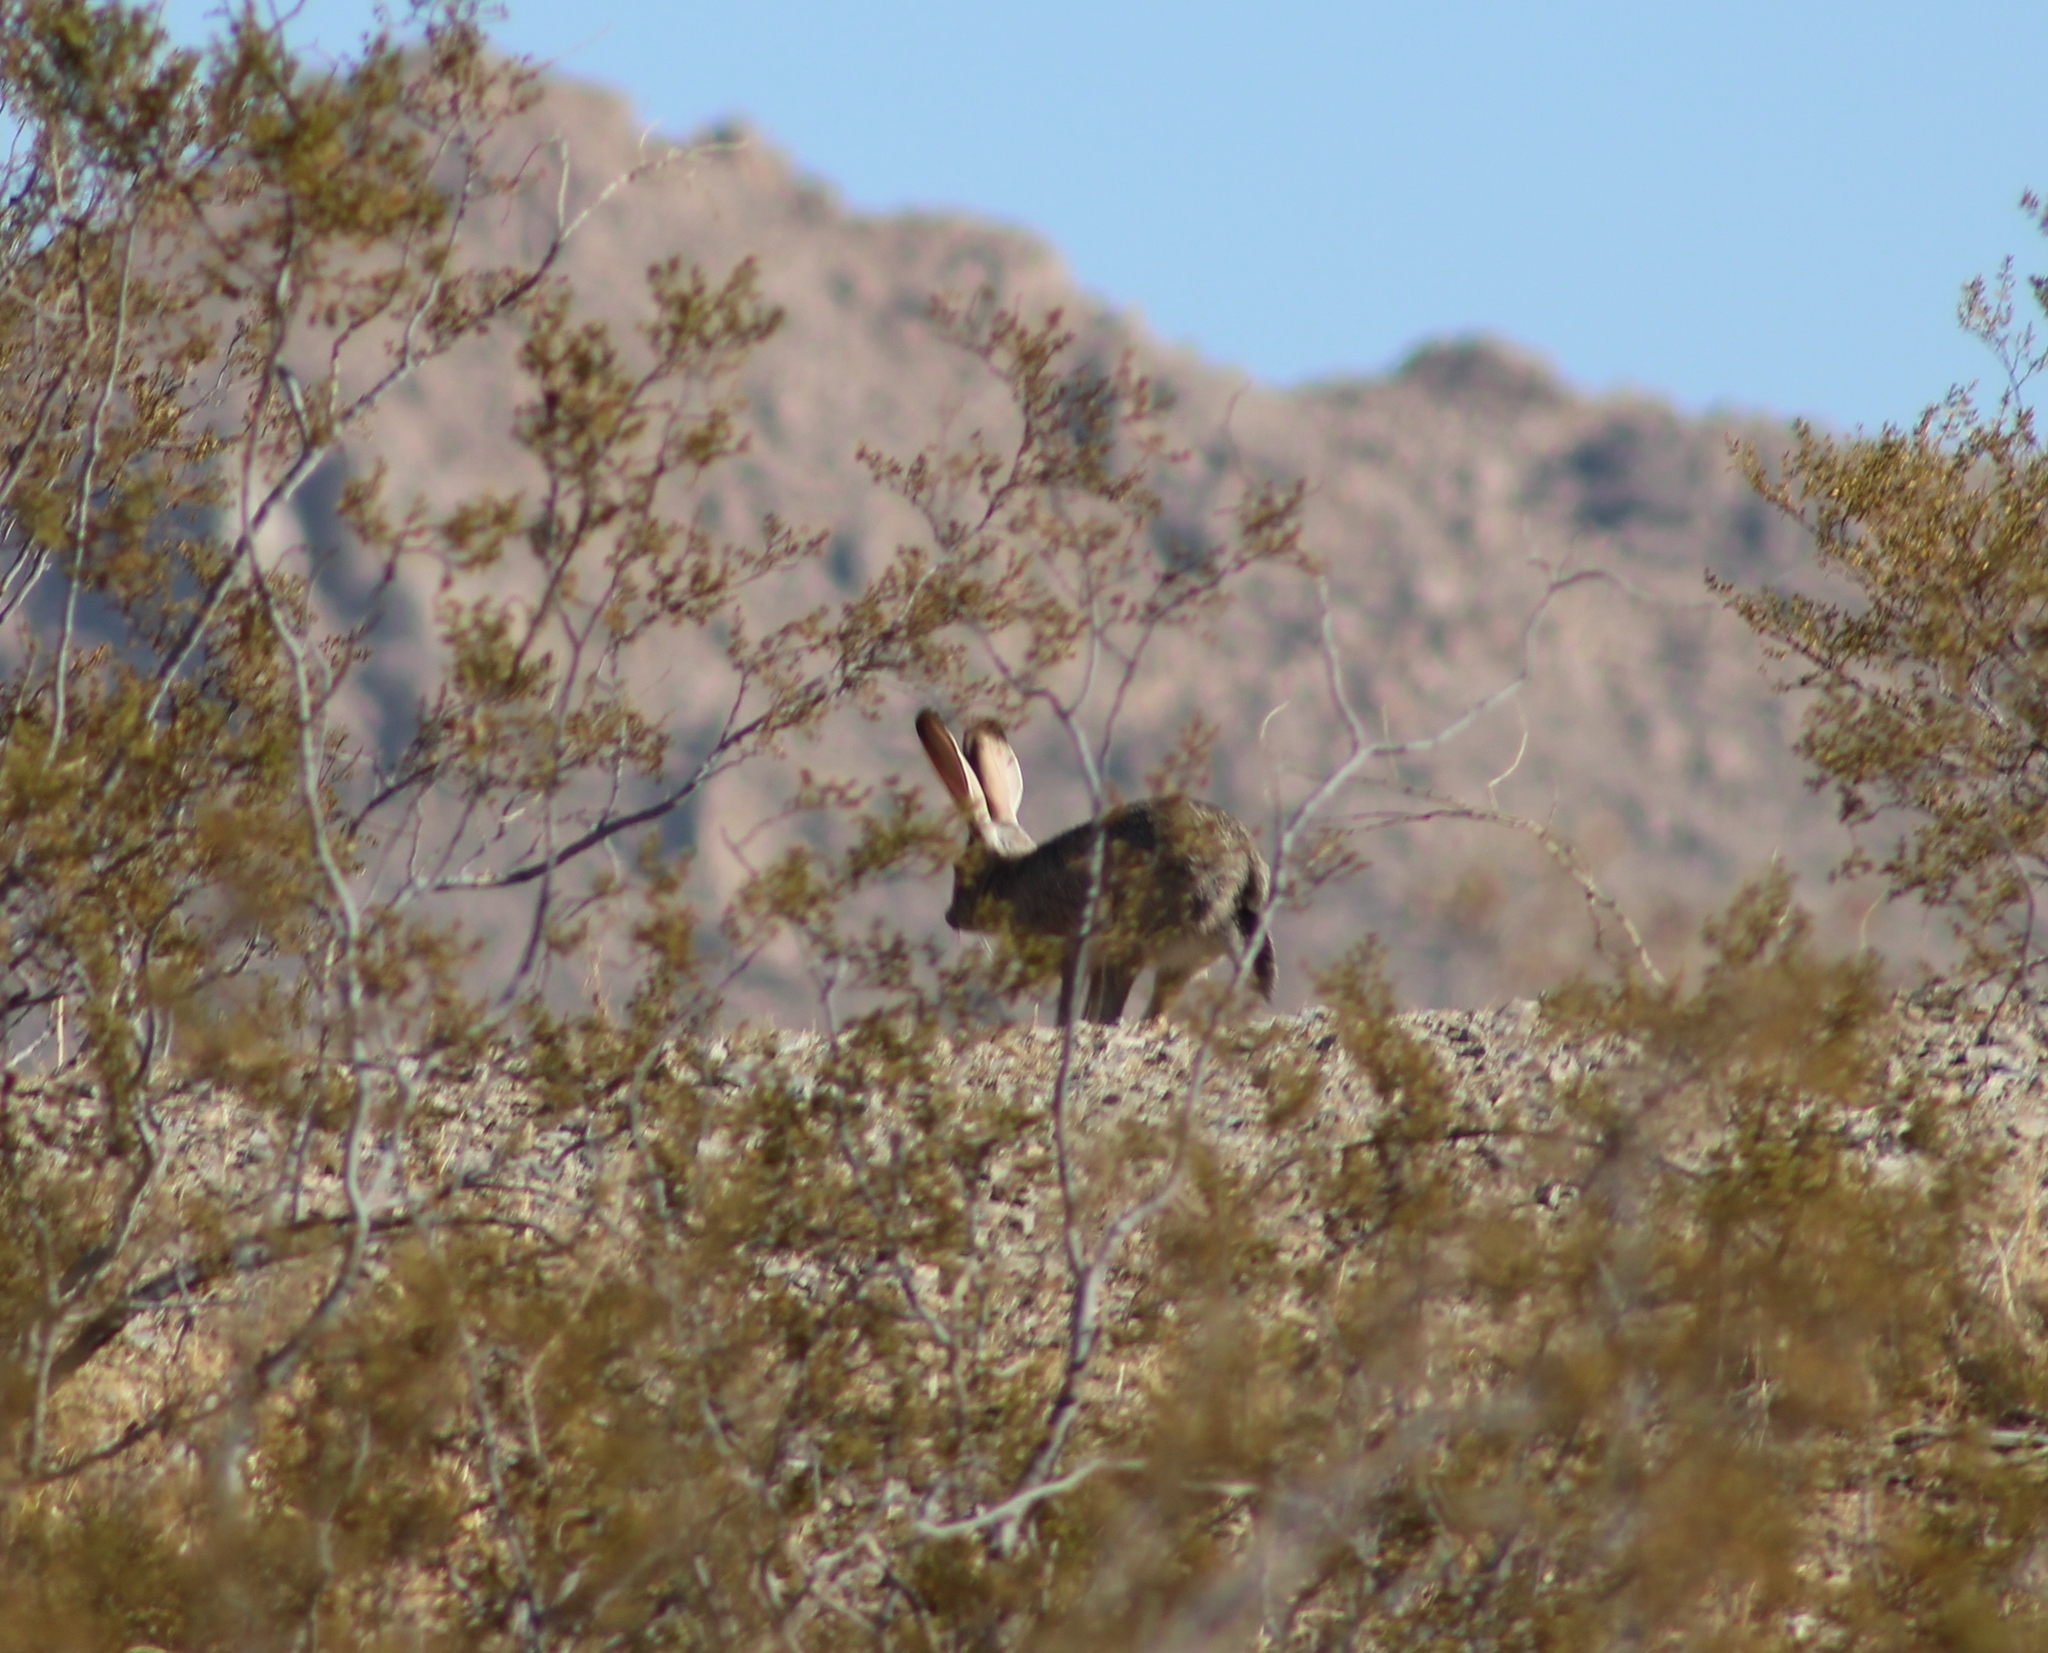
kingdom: Animalia
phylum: Chordata
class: Mammalia
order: Lagomorpha
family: Leporidae
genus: Lepus
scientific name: Lepus californicus
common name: Black-tailed jackrabbit
